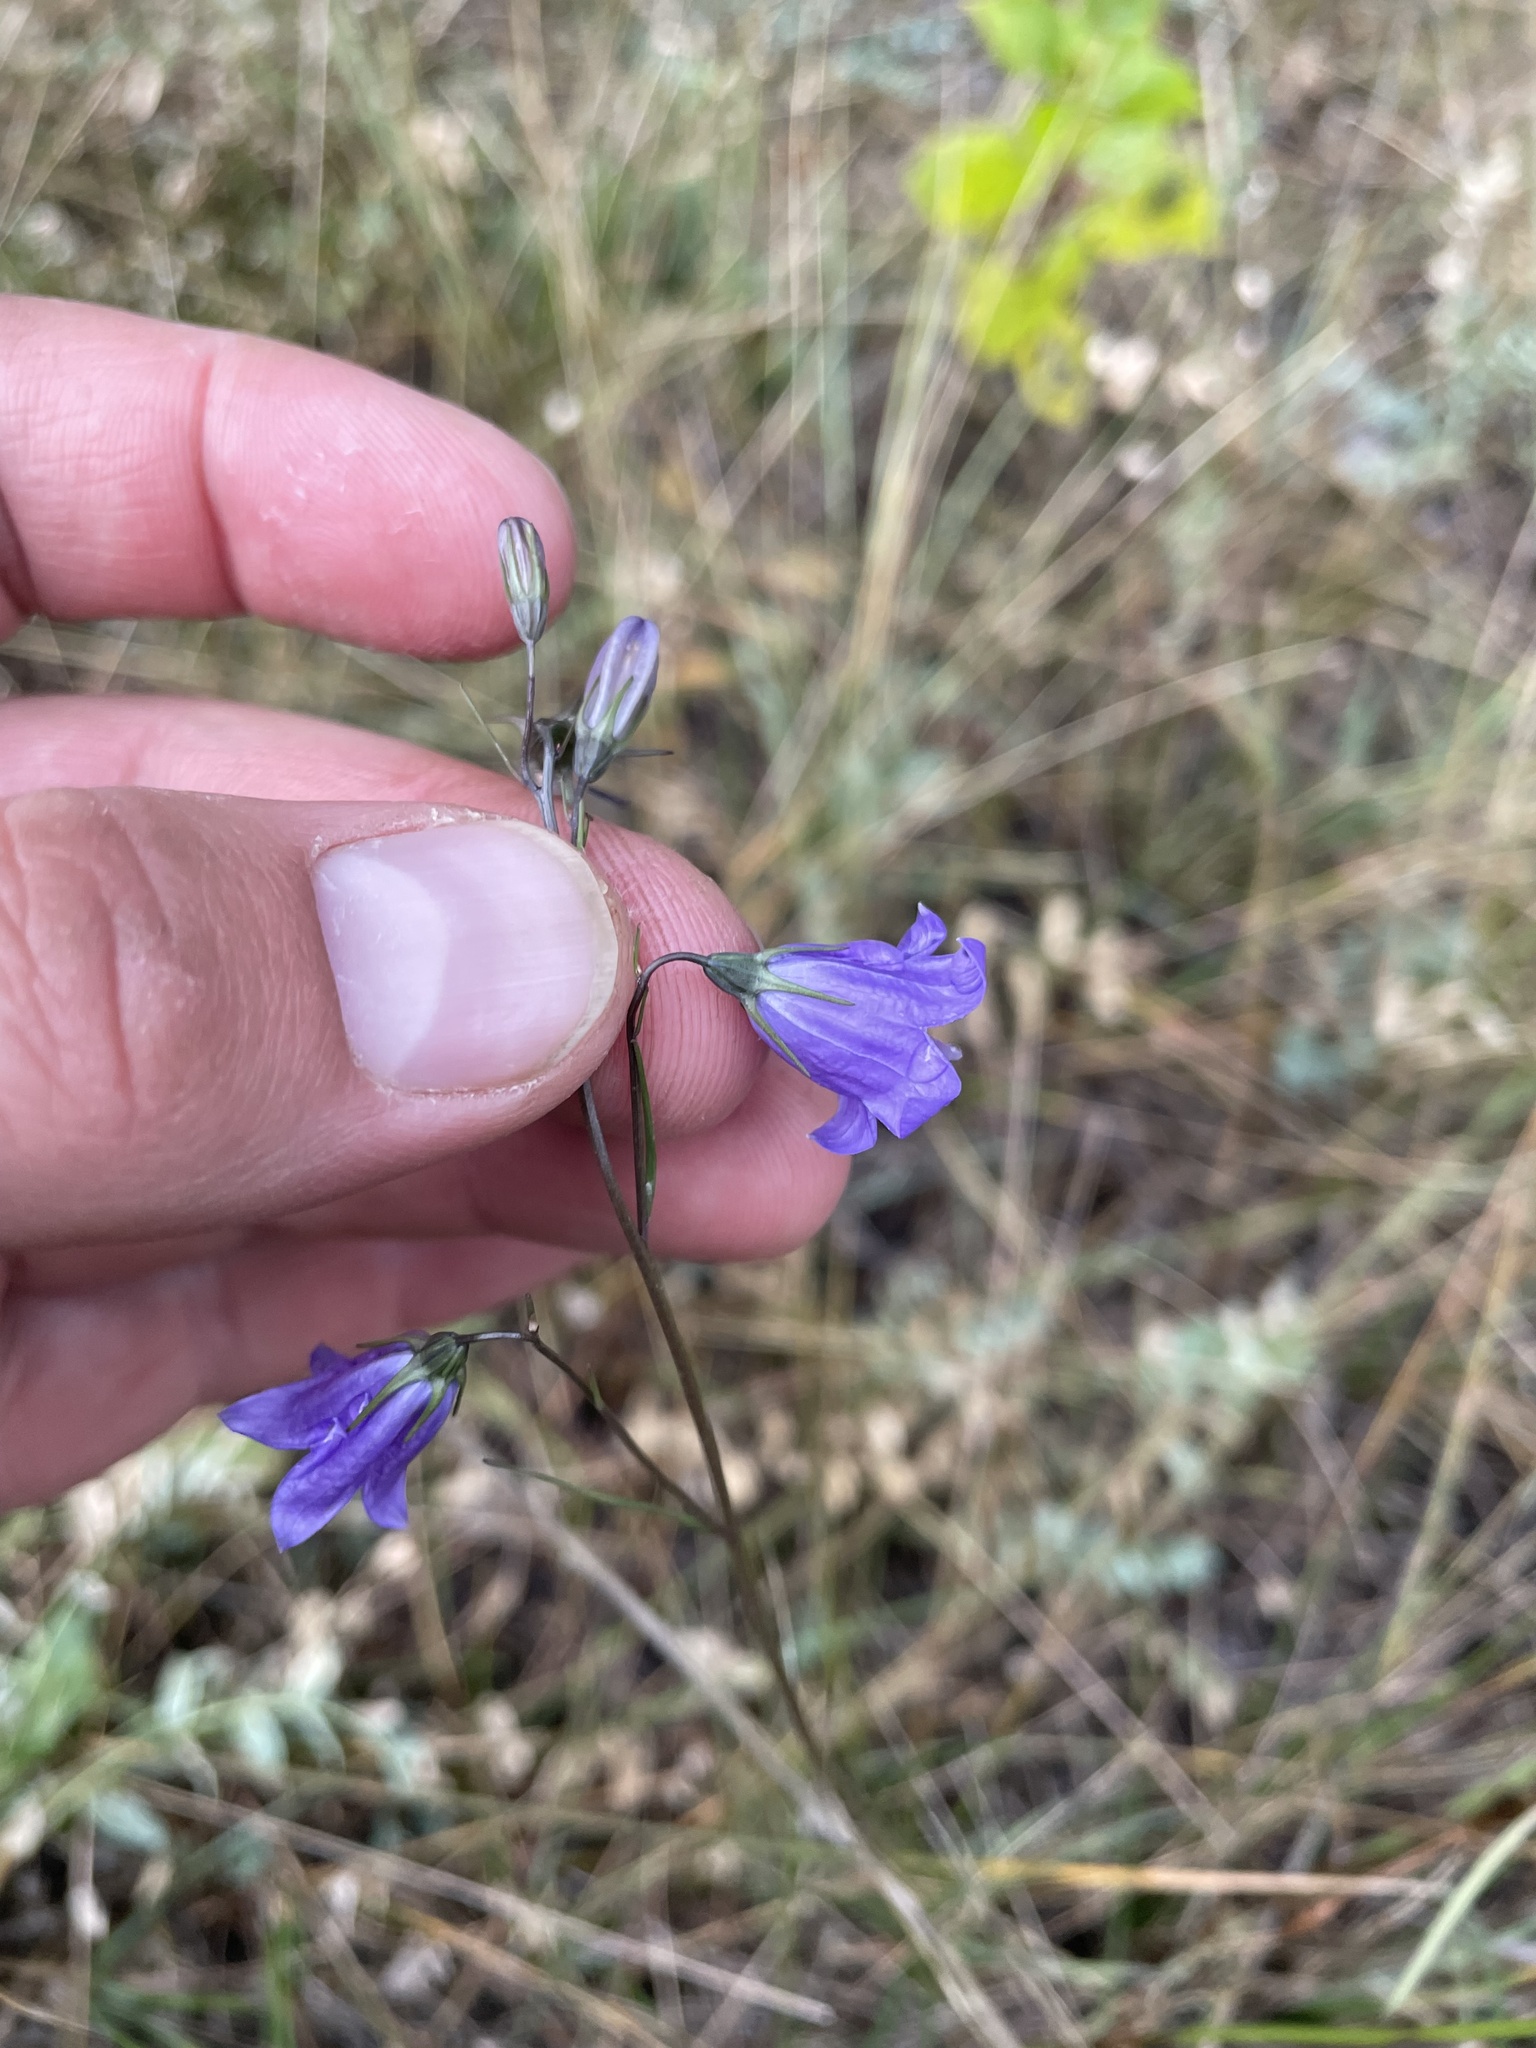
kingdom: Plantae
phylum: Tracheophyta
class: Magnoliopsida
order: Asterales
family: Campanulaceae
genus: Campanula
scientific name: Campanula alaskana
